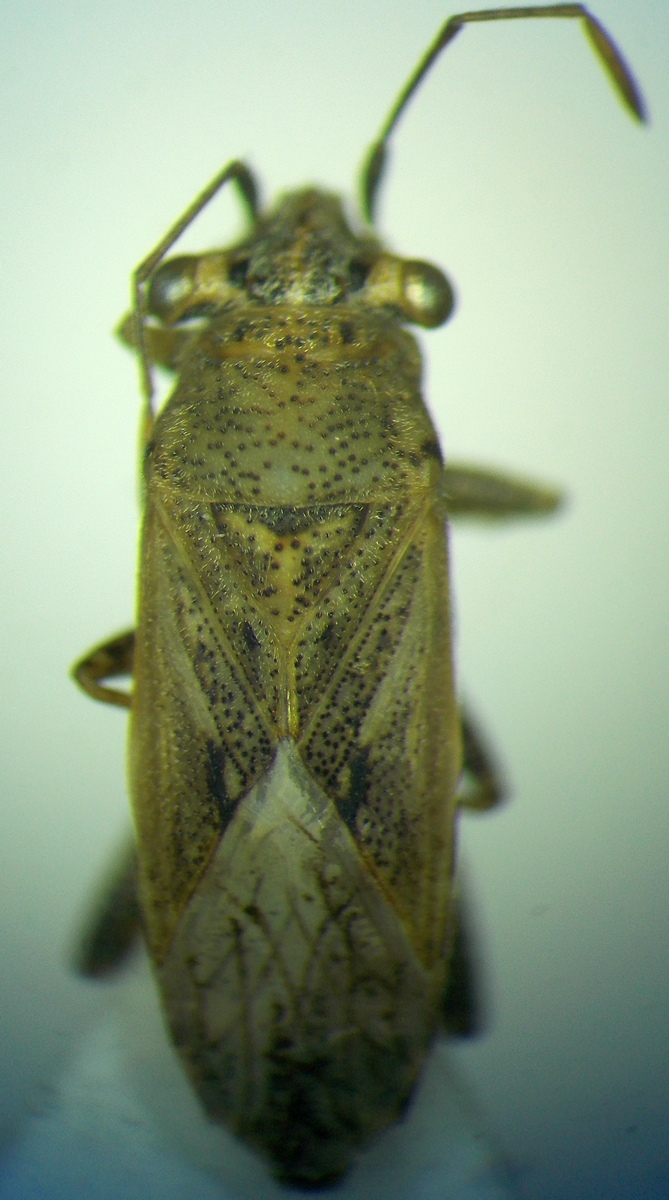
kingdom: Animalia
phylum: Arthropoda
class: Insecta
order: Hemiptera
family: Geocoridae
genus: Henestaris
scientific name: Henestaris halophilus
